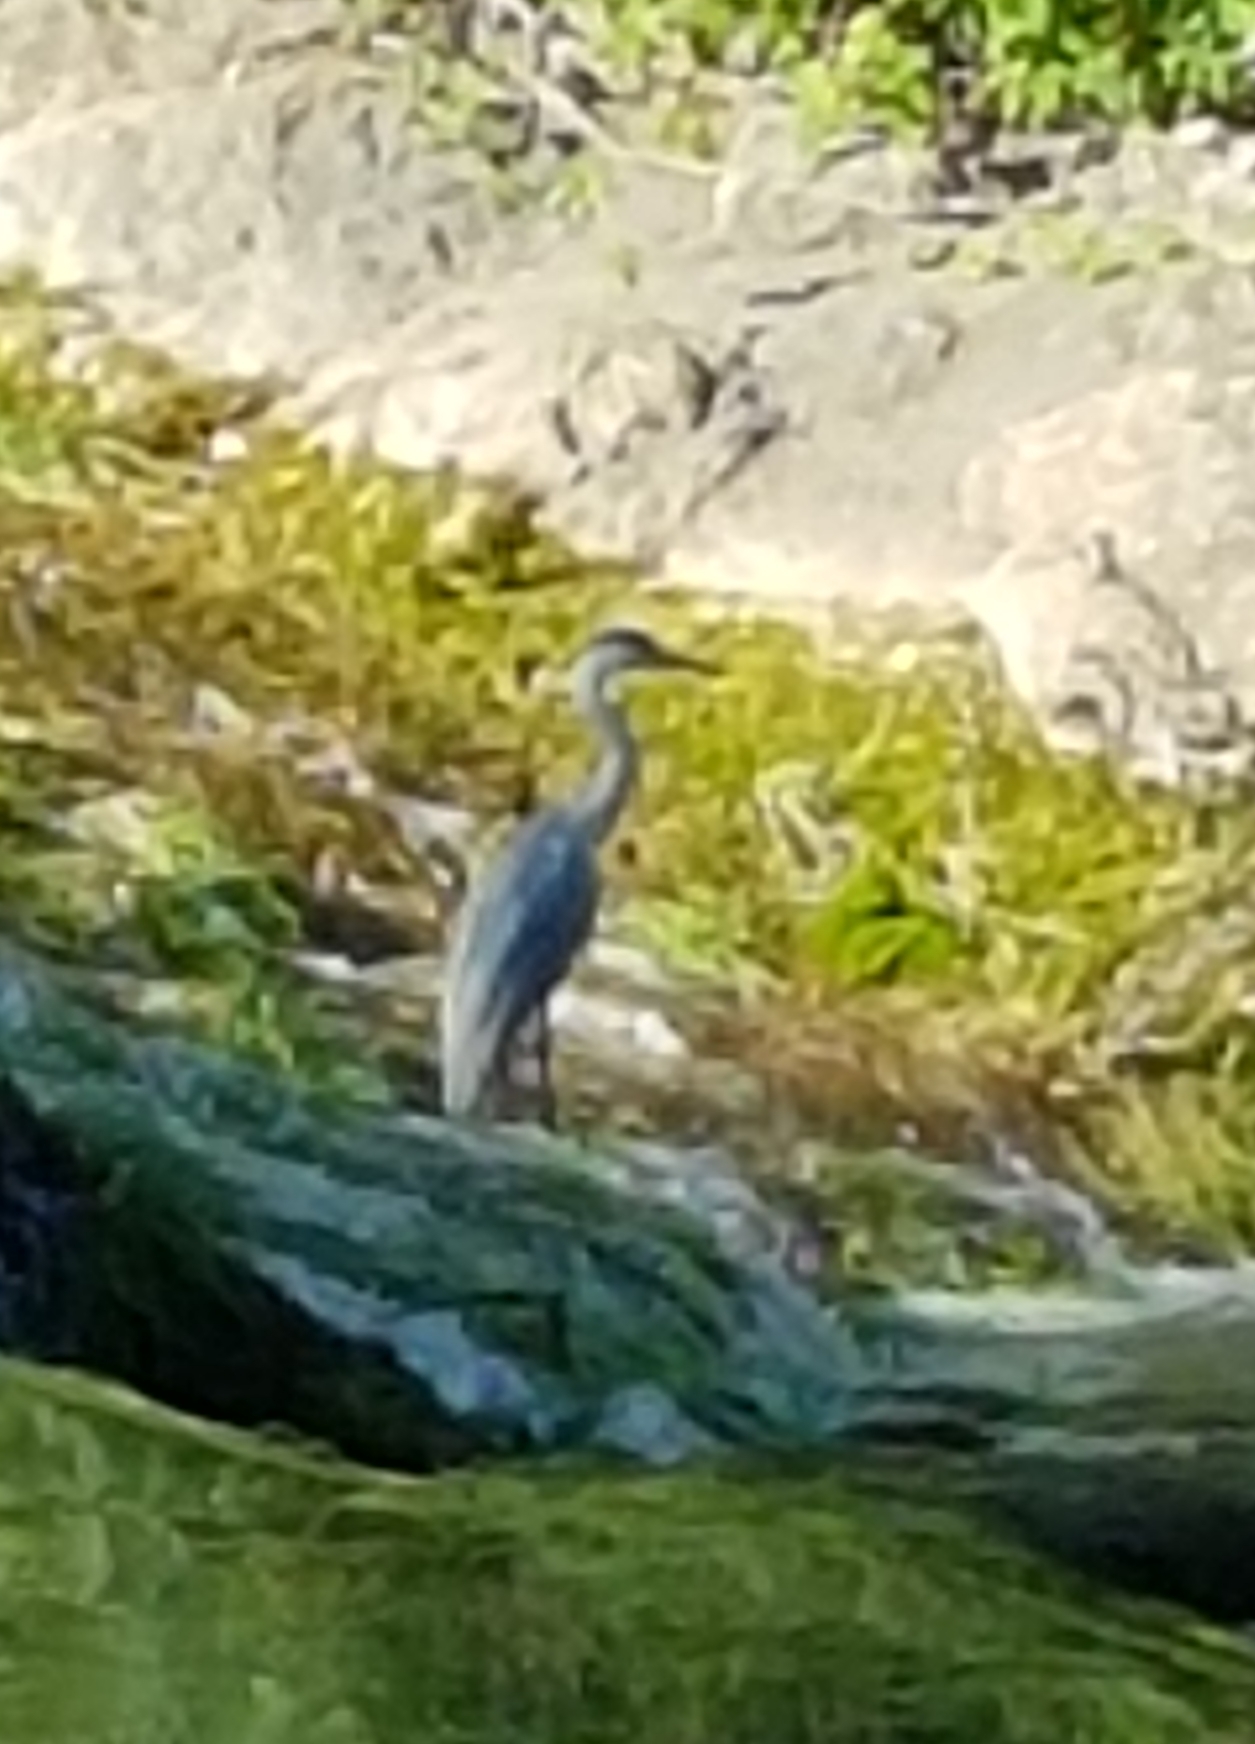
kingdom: Animalia
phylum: Chordata
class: Aves
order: Pelecaniformes
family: Ardeidae
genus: Ardea
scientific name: Ardea cinerea
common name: Grey heron
